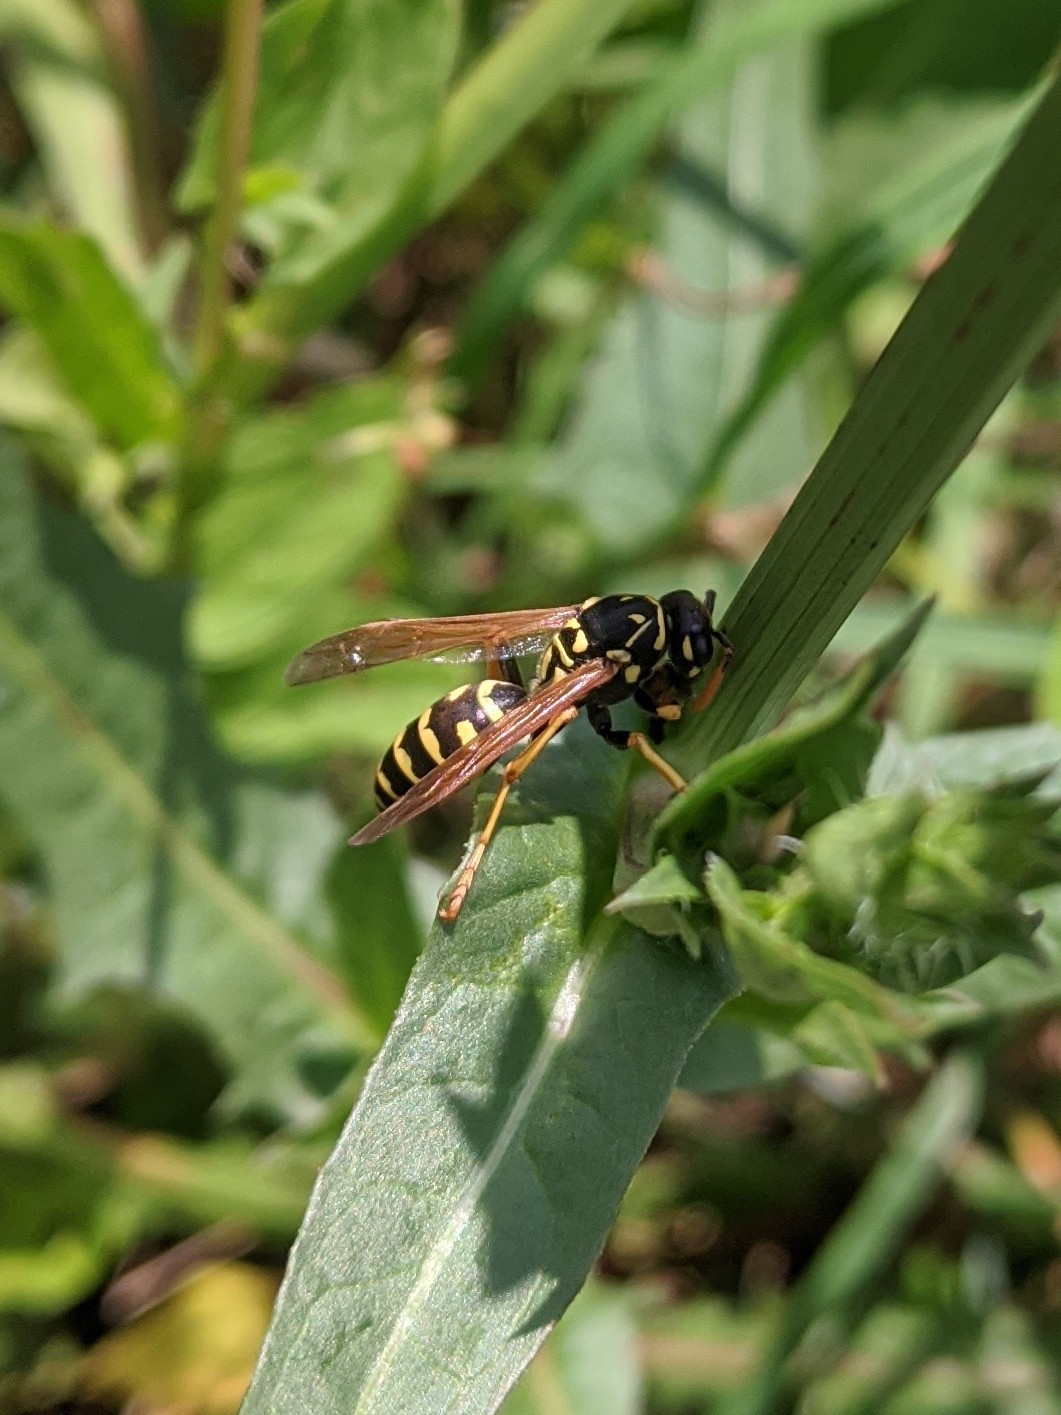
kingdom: Animalia
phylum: Arthropoda
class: Insecta
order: Hymenoptera
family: Eumenidae
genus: Polistes
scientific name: Polistes dominula
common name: Paper wasp
